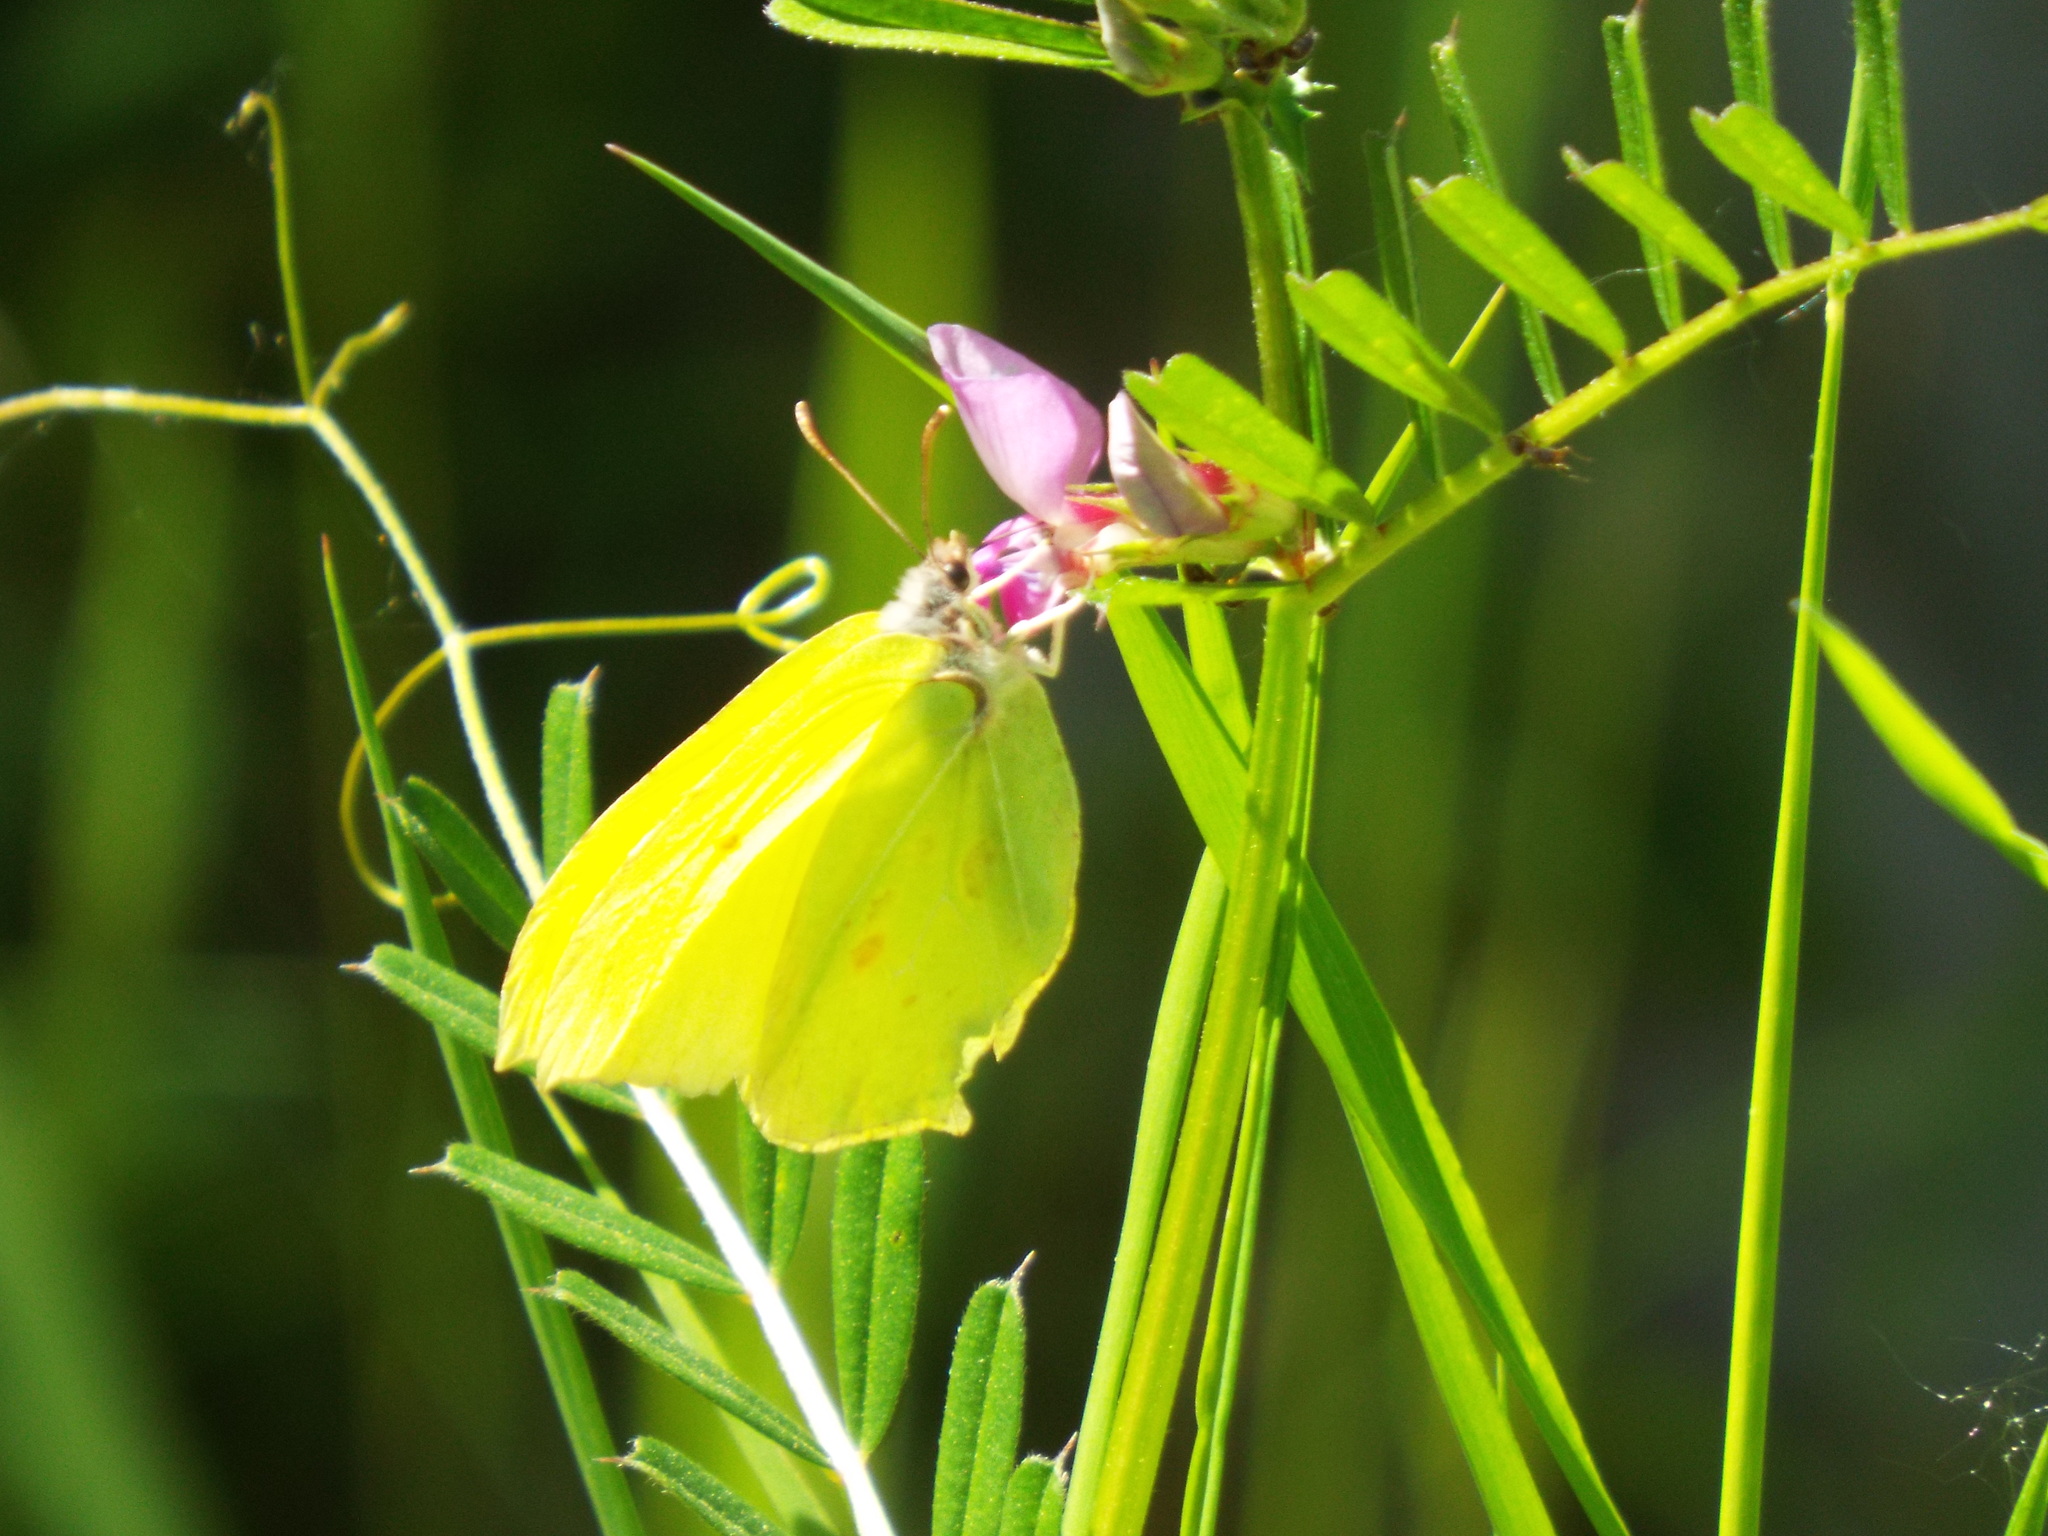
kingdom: Animalia
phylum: Arthropoda
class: Insecta
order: Lepidoptera
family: Pieridae
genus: Gonepteryx
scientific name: Gonepteryx rhamni
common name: Brimstone
